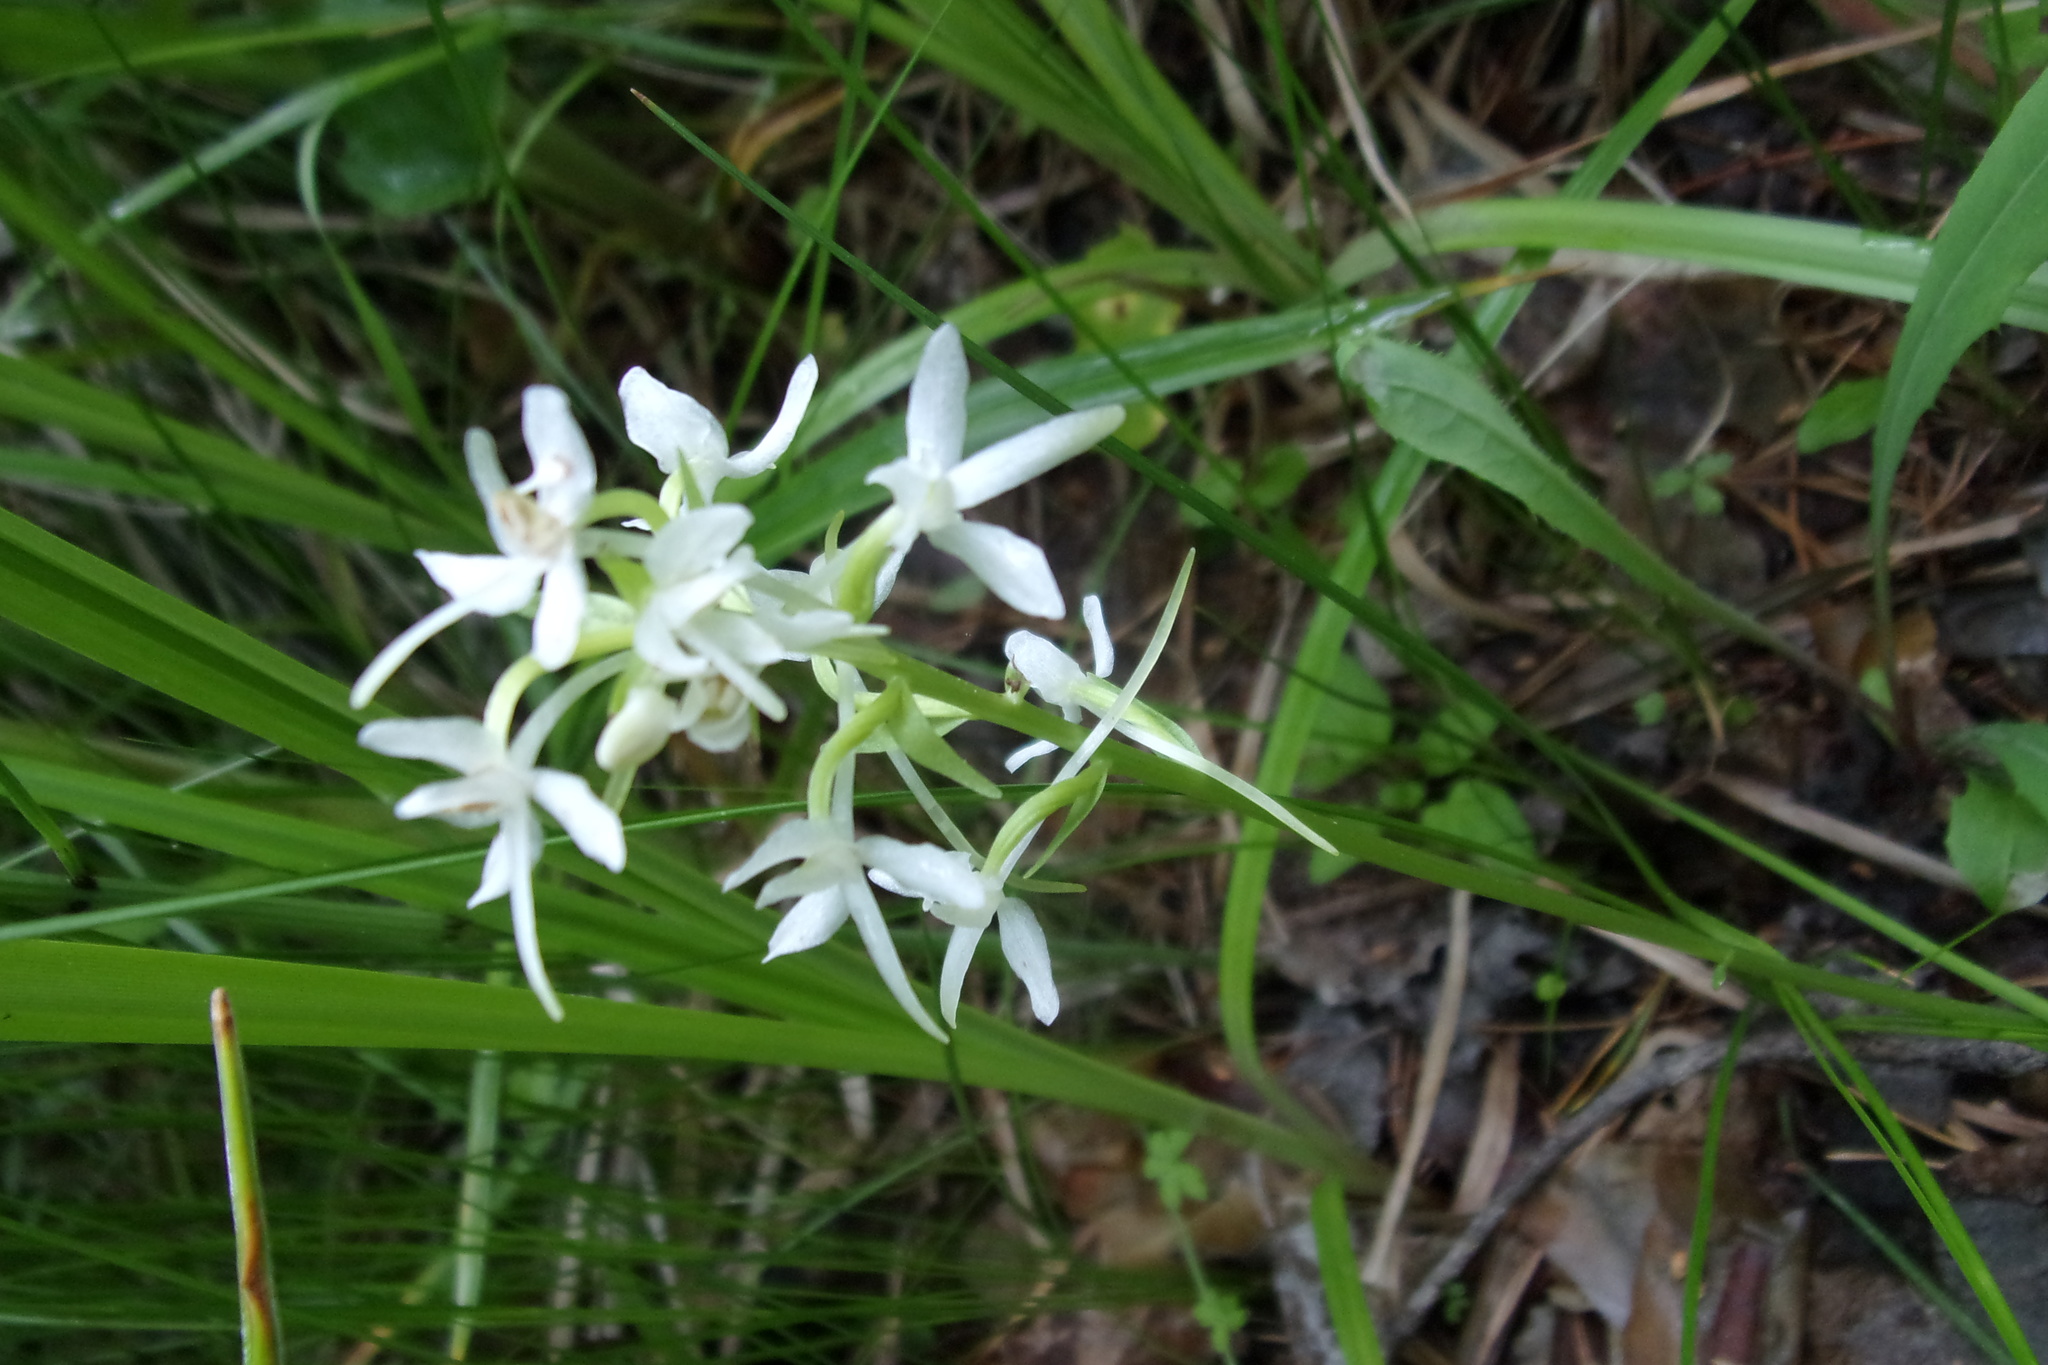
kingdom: Plantae
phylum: Tracheophyta
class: Liliopsida
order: Asparagales
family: Orchidaceae
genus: Platanthera
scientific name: Platanthera bifolia
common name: Lesser butterfly-orchid
